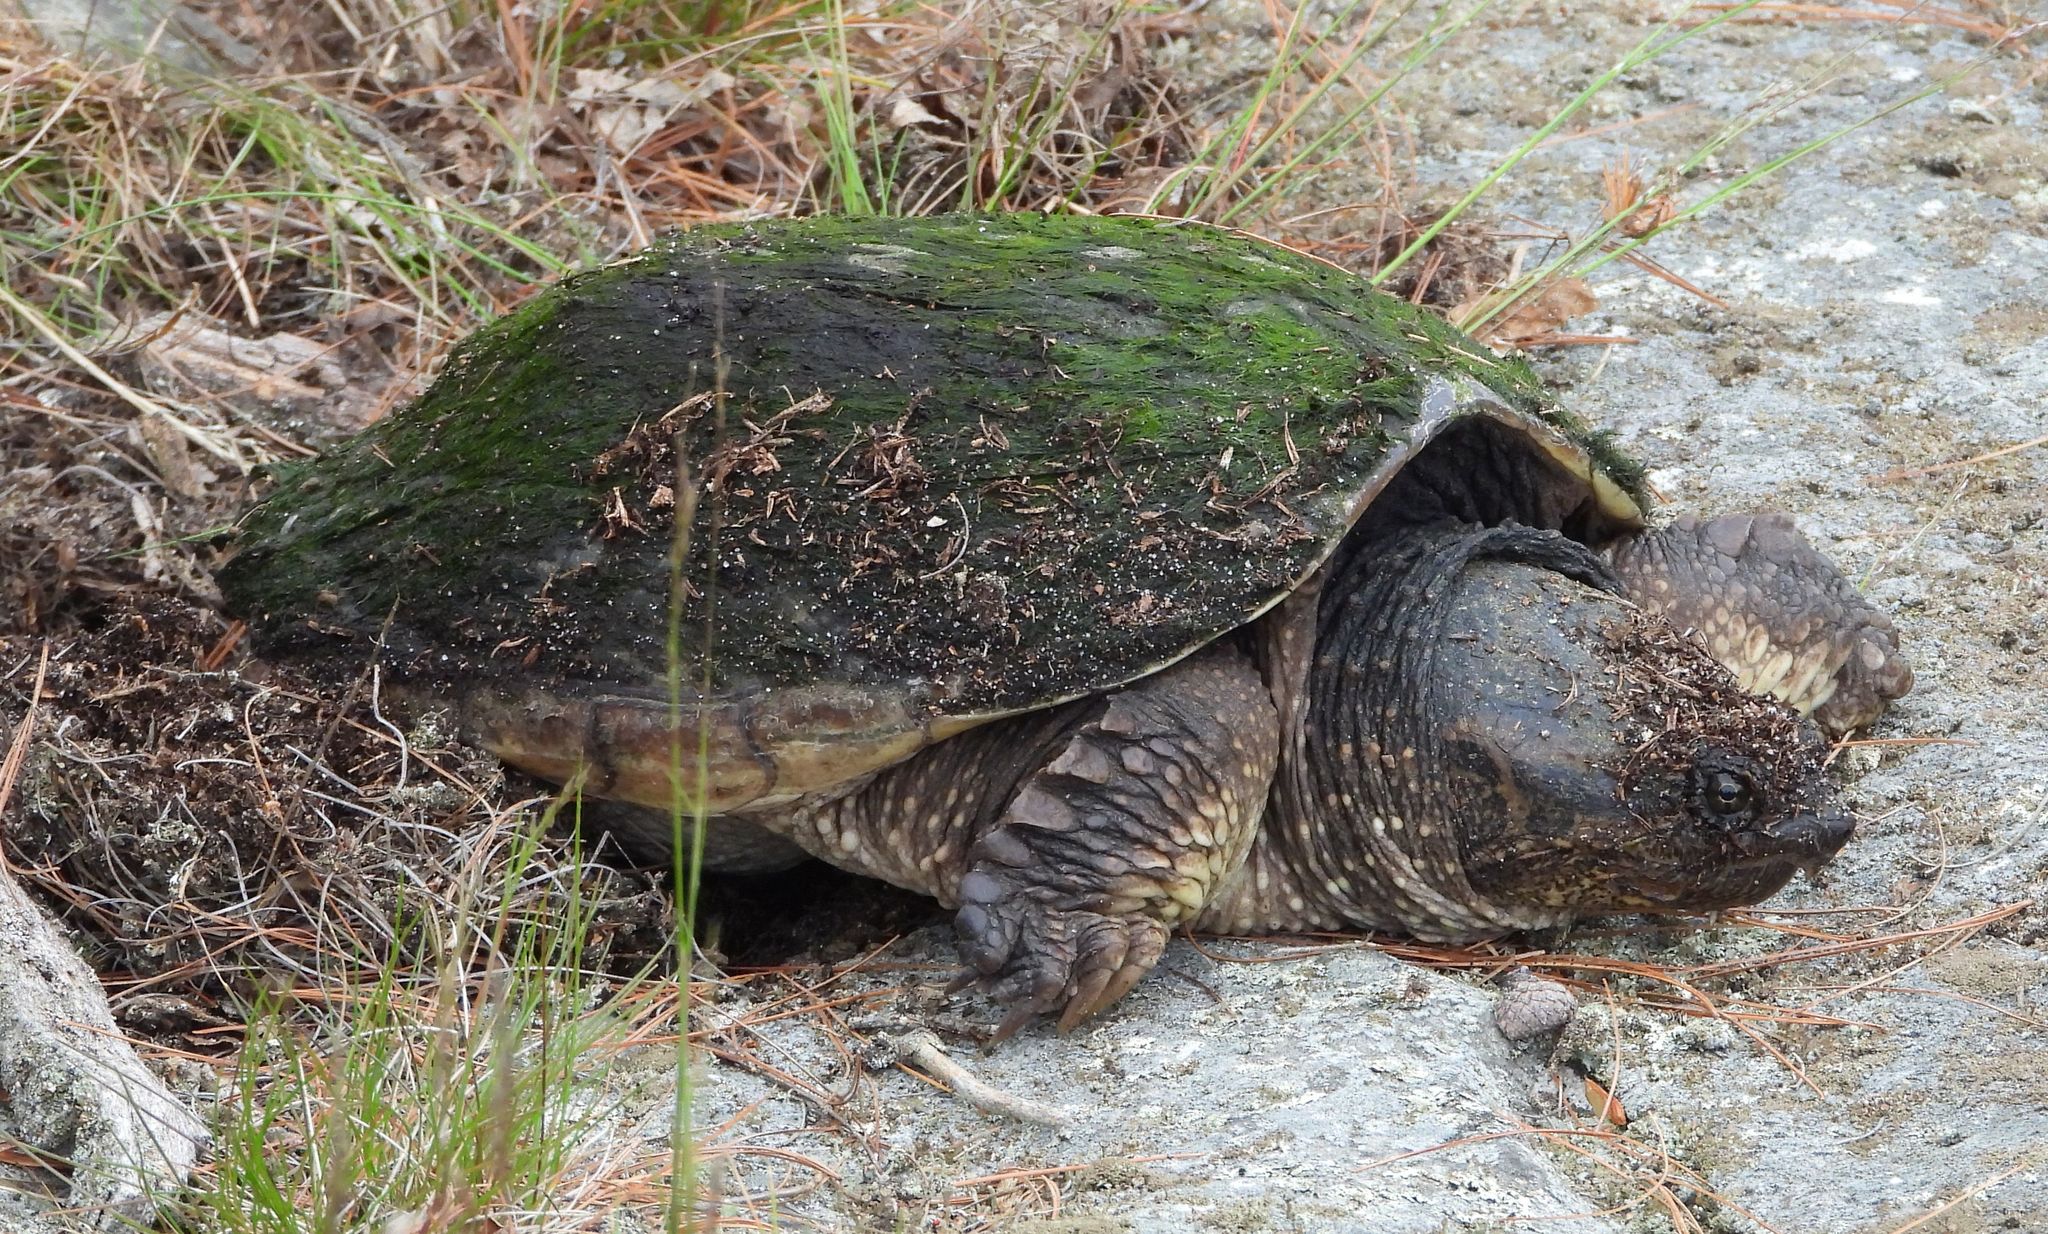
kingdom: Animalia
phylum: Chordata
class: Testudines
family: Chelydridae
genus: Chelydra
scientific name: Chelydra serpentina
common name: Common snapping turtle
